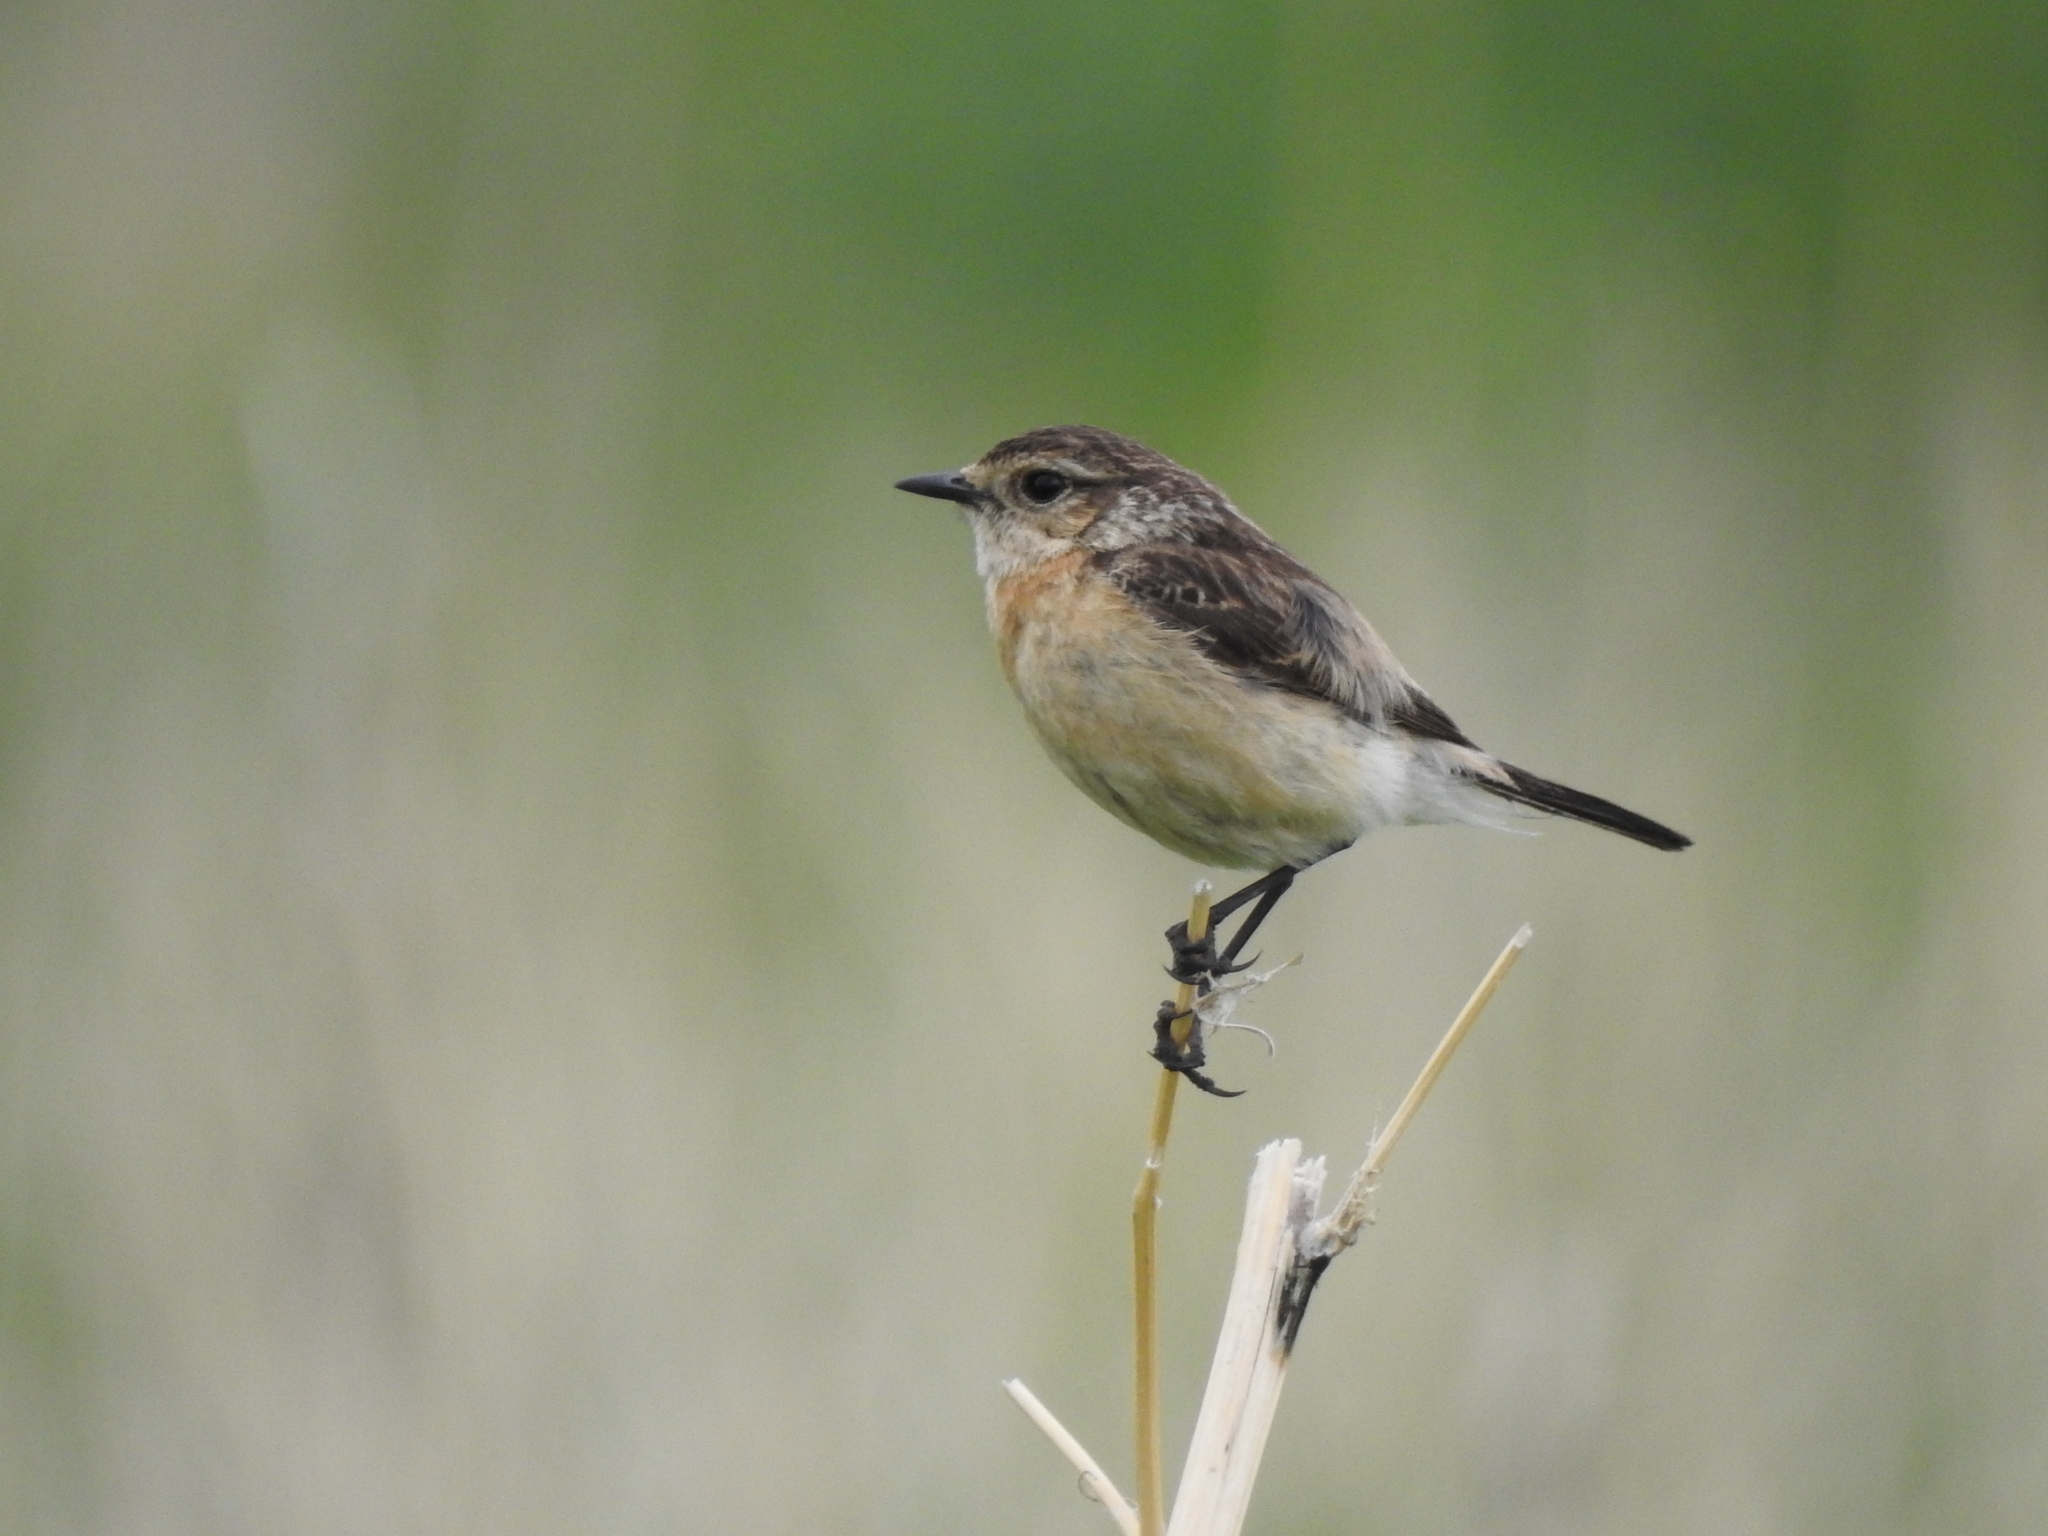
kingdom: Animalia
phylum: Chordata
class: Aves
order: Passeriformes
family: Muscicapidae
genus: Saxicola
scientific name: Saxicola maurus
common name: Siberian stonechat
